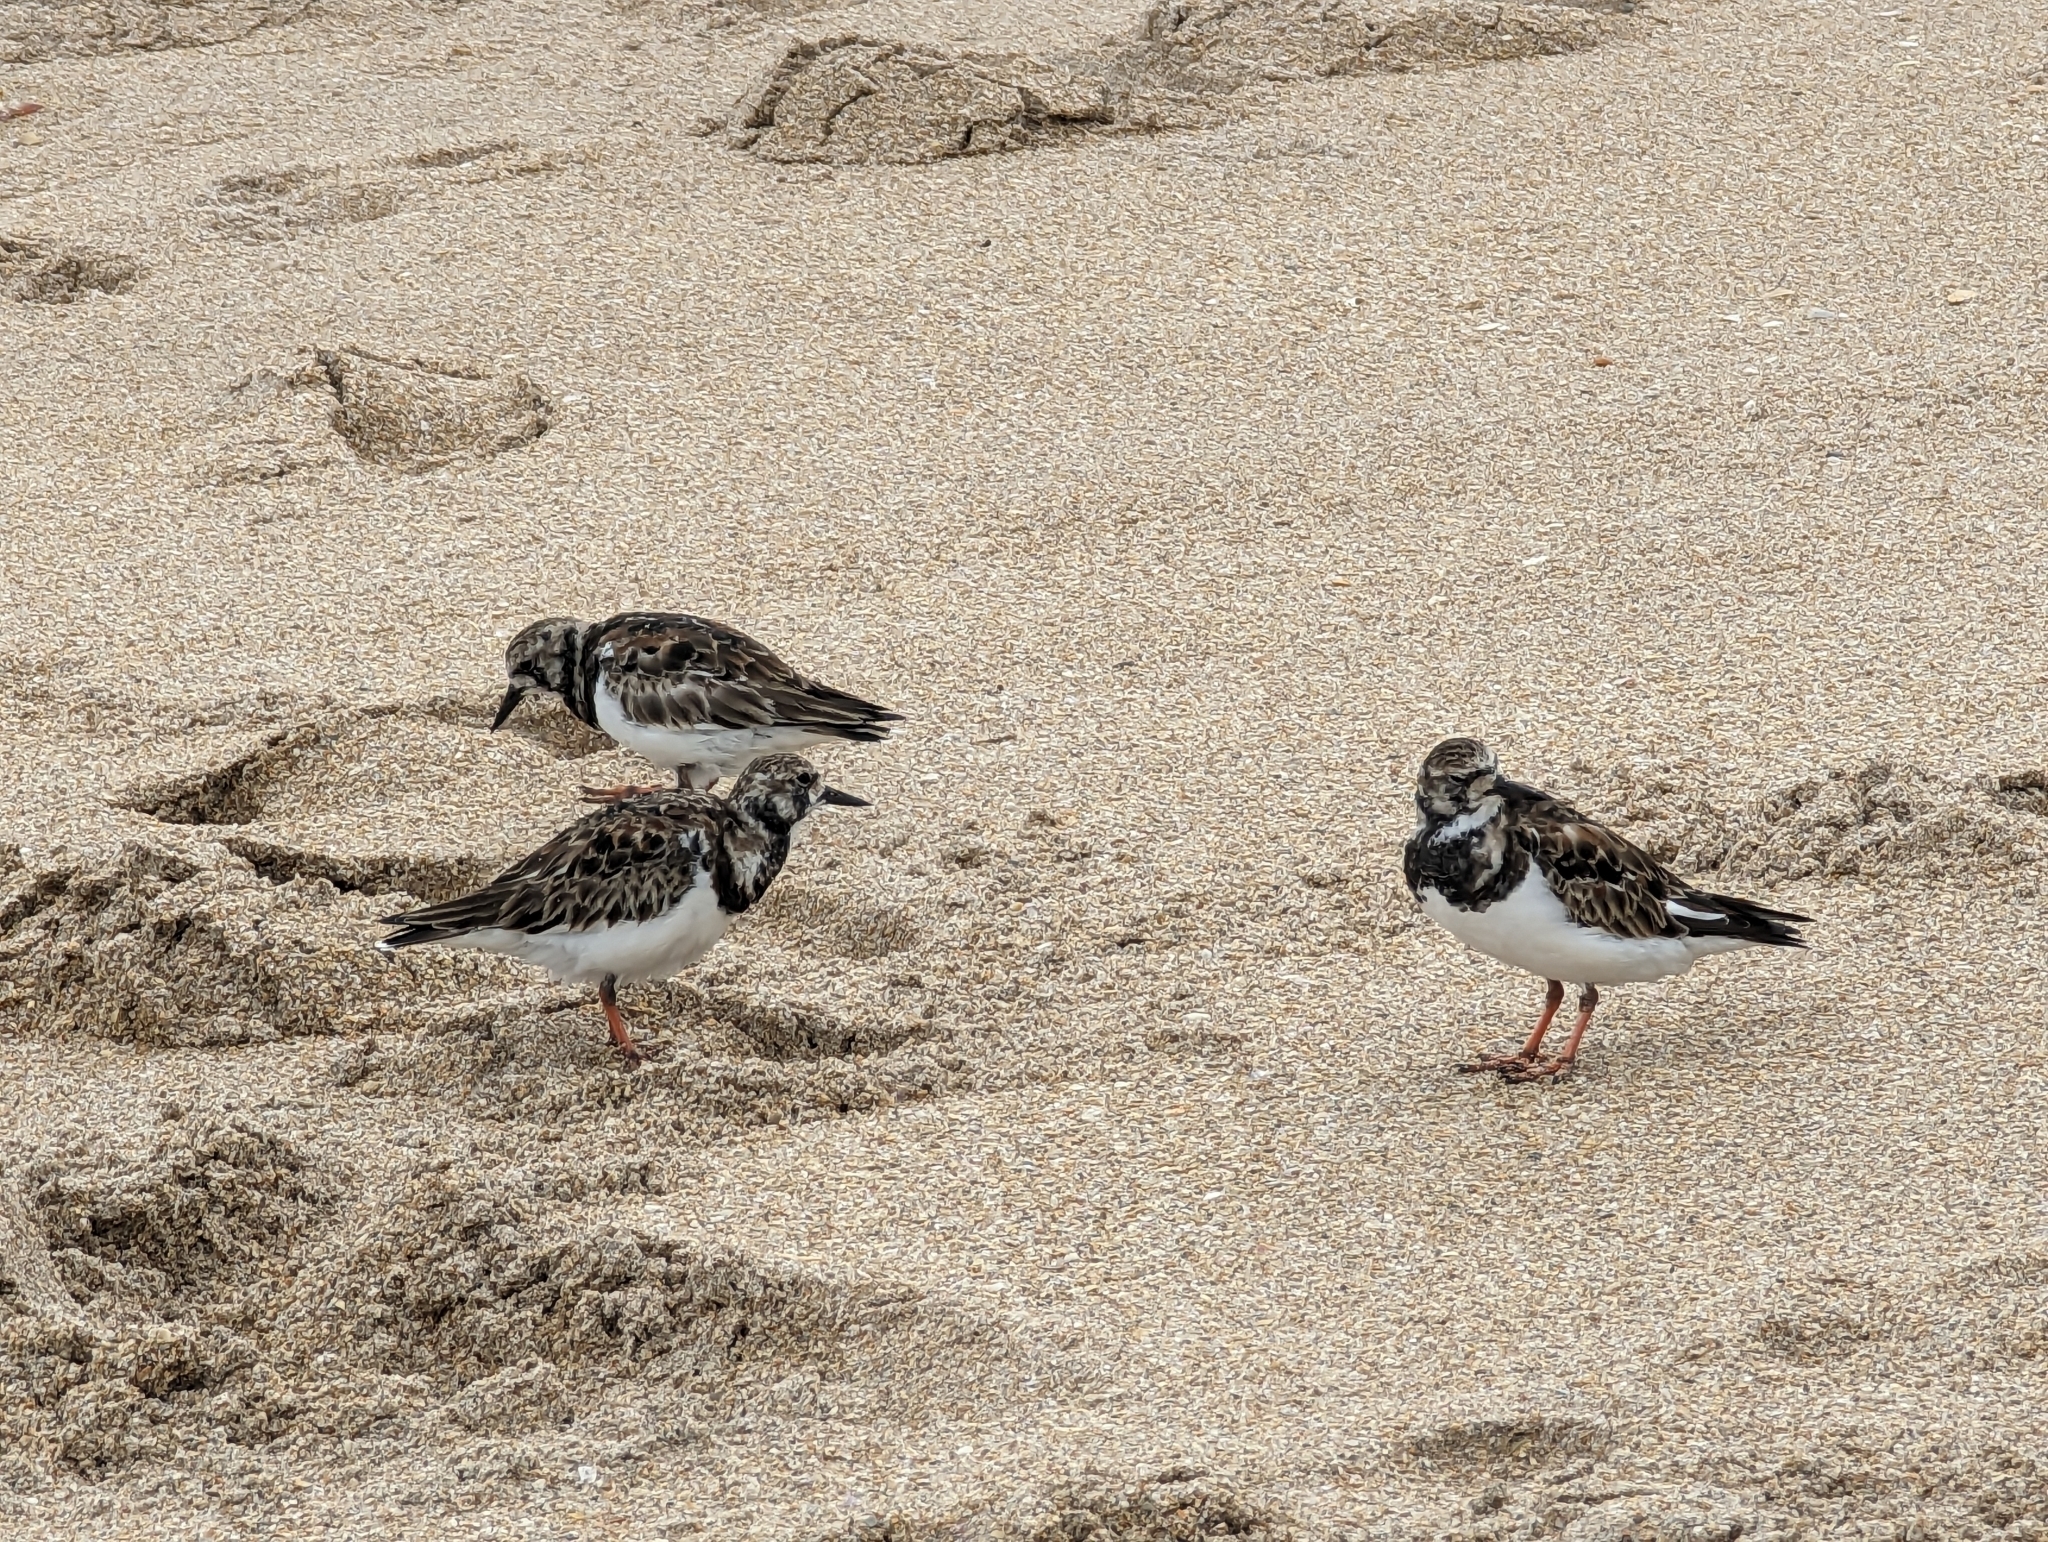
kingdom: Animalia
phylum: Chordata
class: Aves
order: Charadriiformes
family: Scolopacidae
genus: Arenaria
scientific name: Arenaria interpres
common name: Ruddy turnstone
